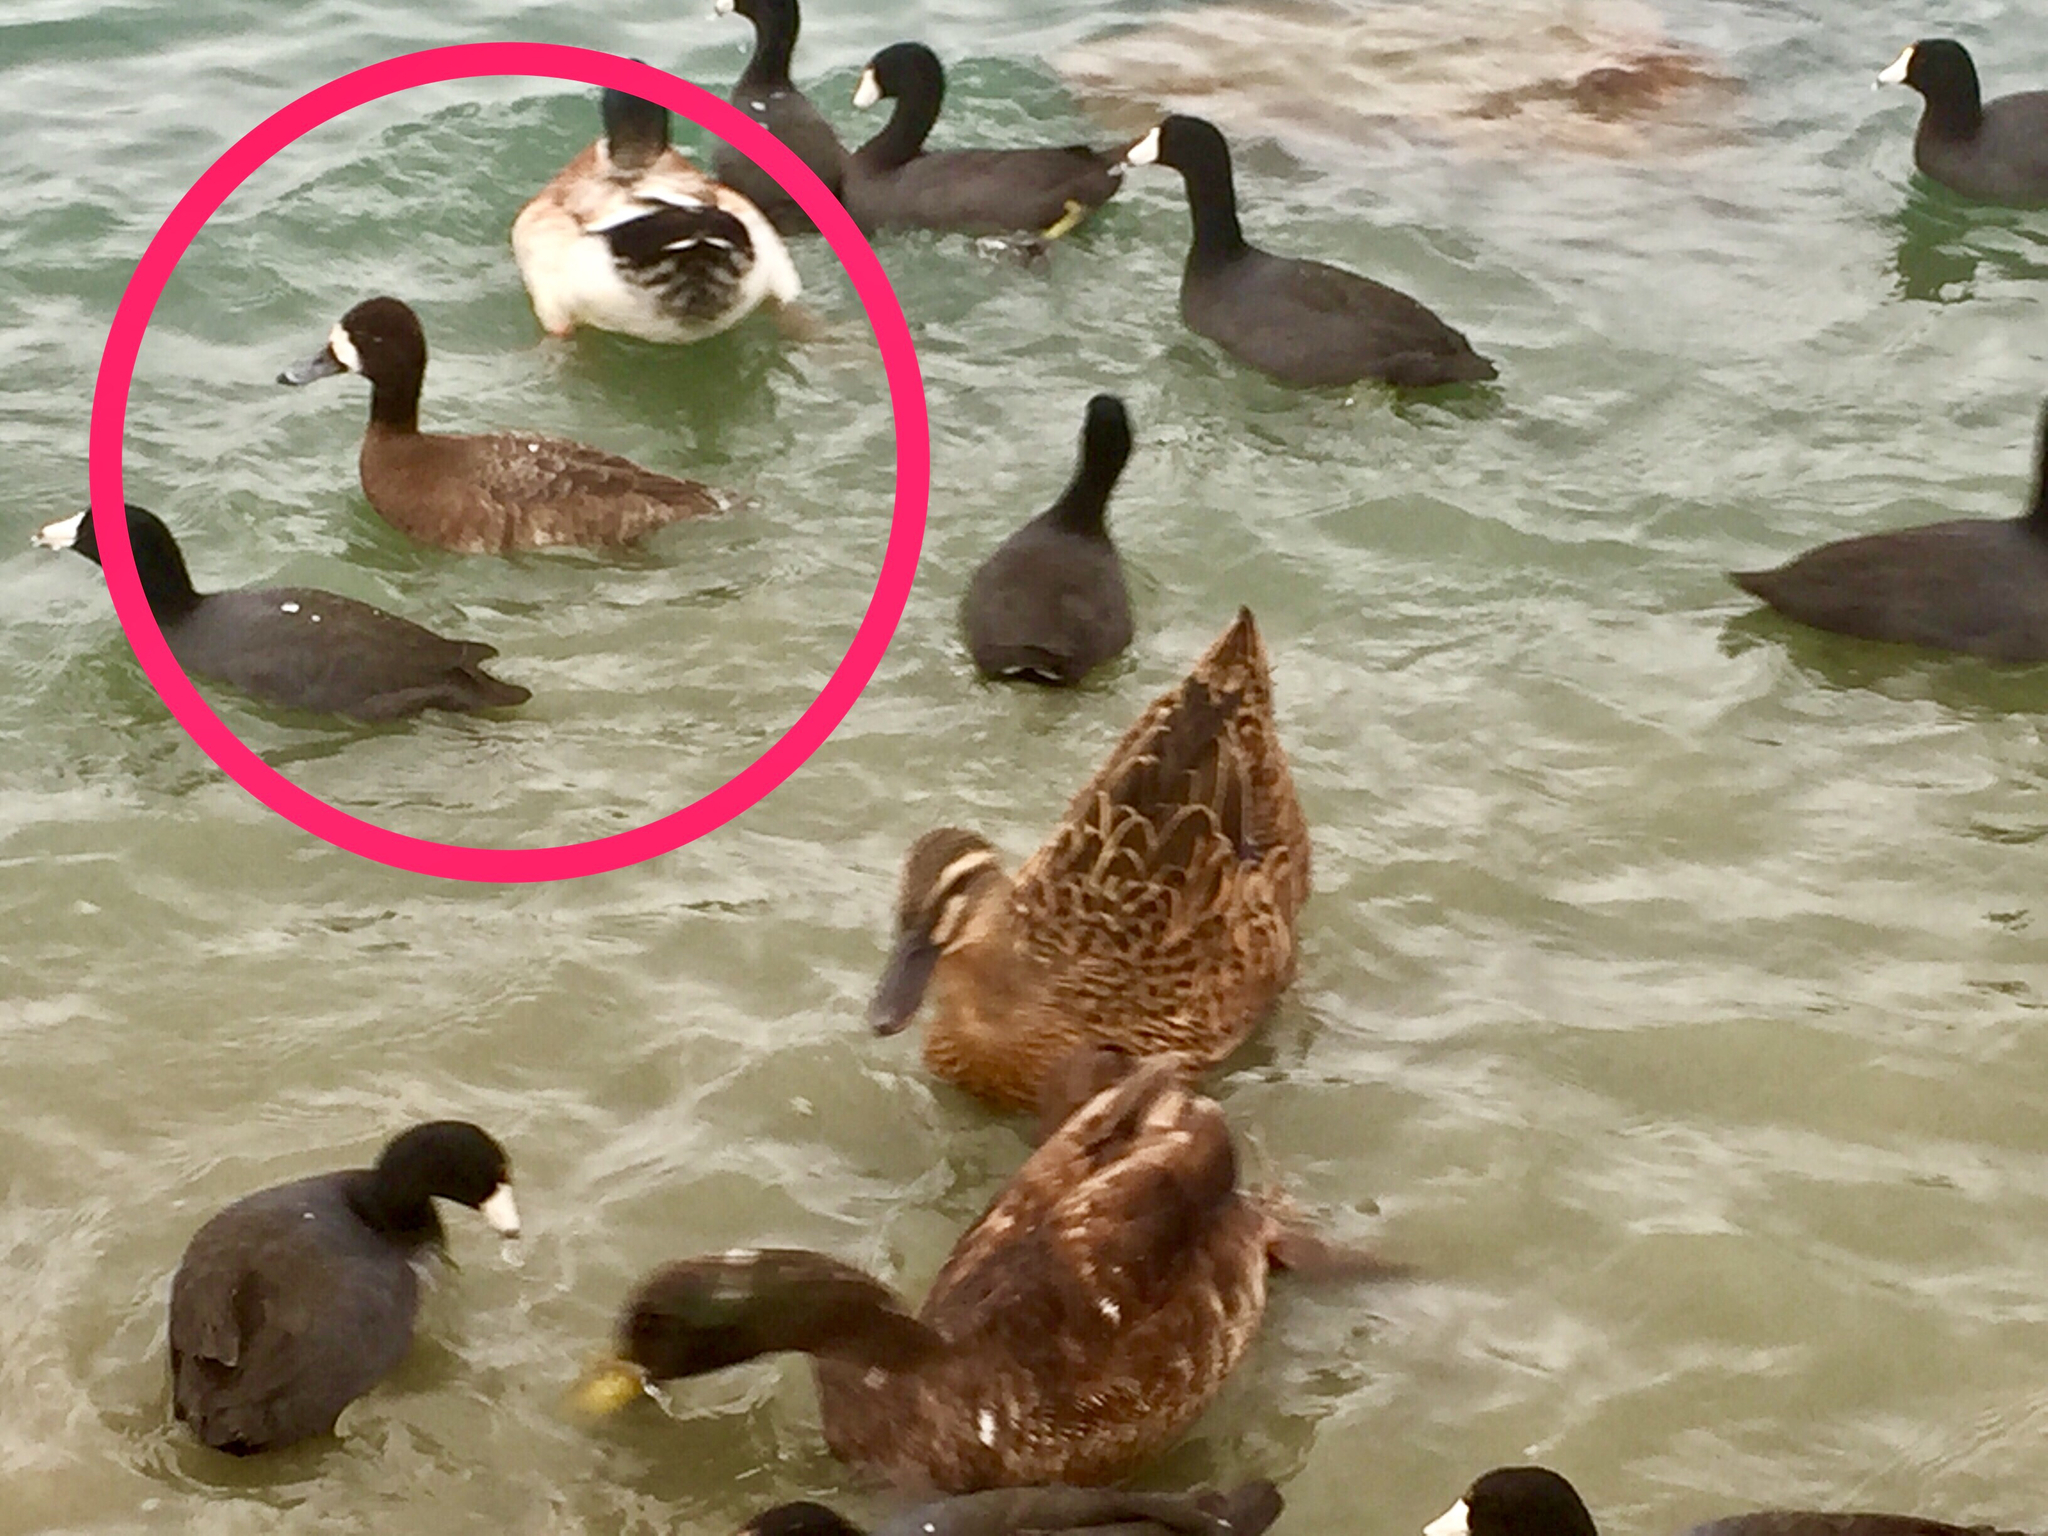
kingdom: Animalia
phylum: Chordata
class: Aves
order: Anseriformes
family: Anatidae
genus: Aythya
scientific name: Aythya affinis
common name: Lesser scaup
